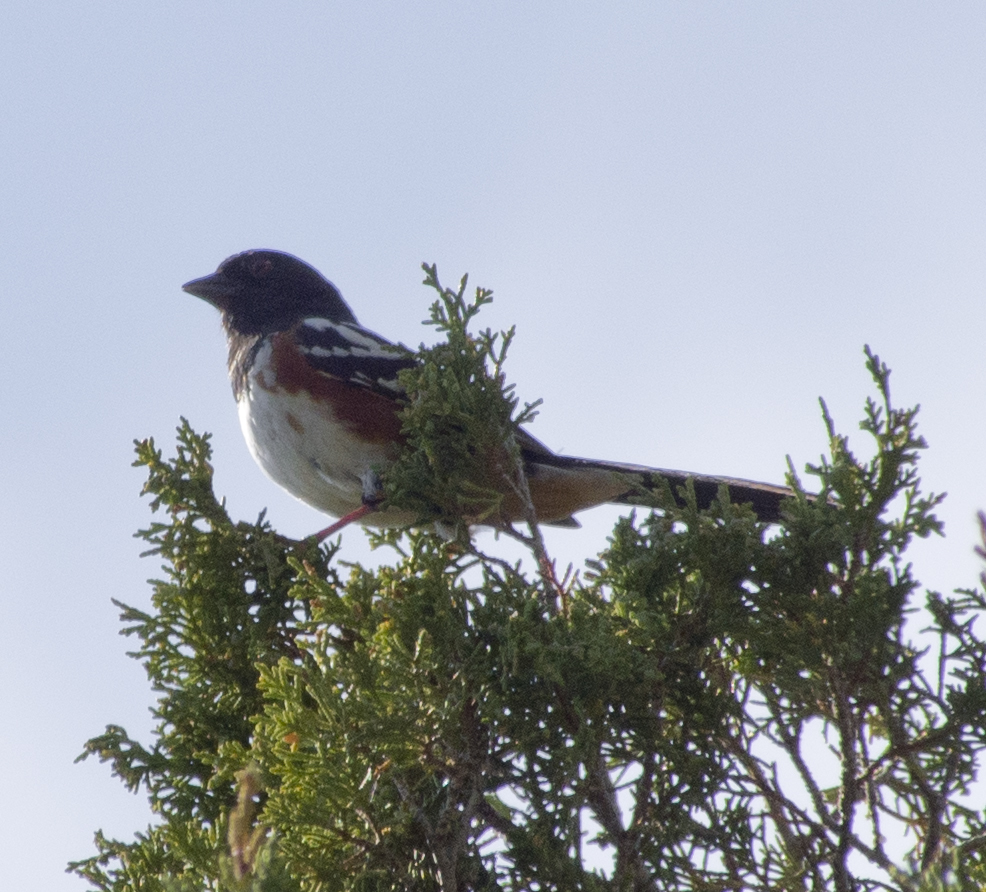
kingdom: Animalia
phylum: Chordata
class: Aves
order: Passeriformes
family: Passerellidae
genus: Pipilo
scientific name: Pipilo maculatus
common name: Spotted towhee
